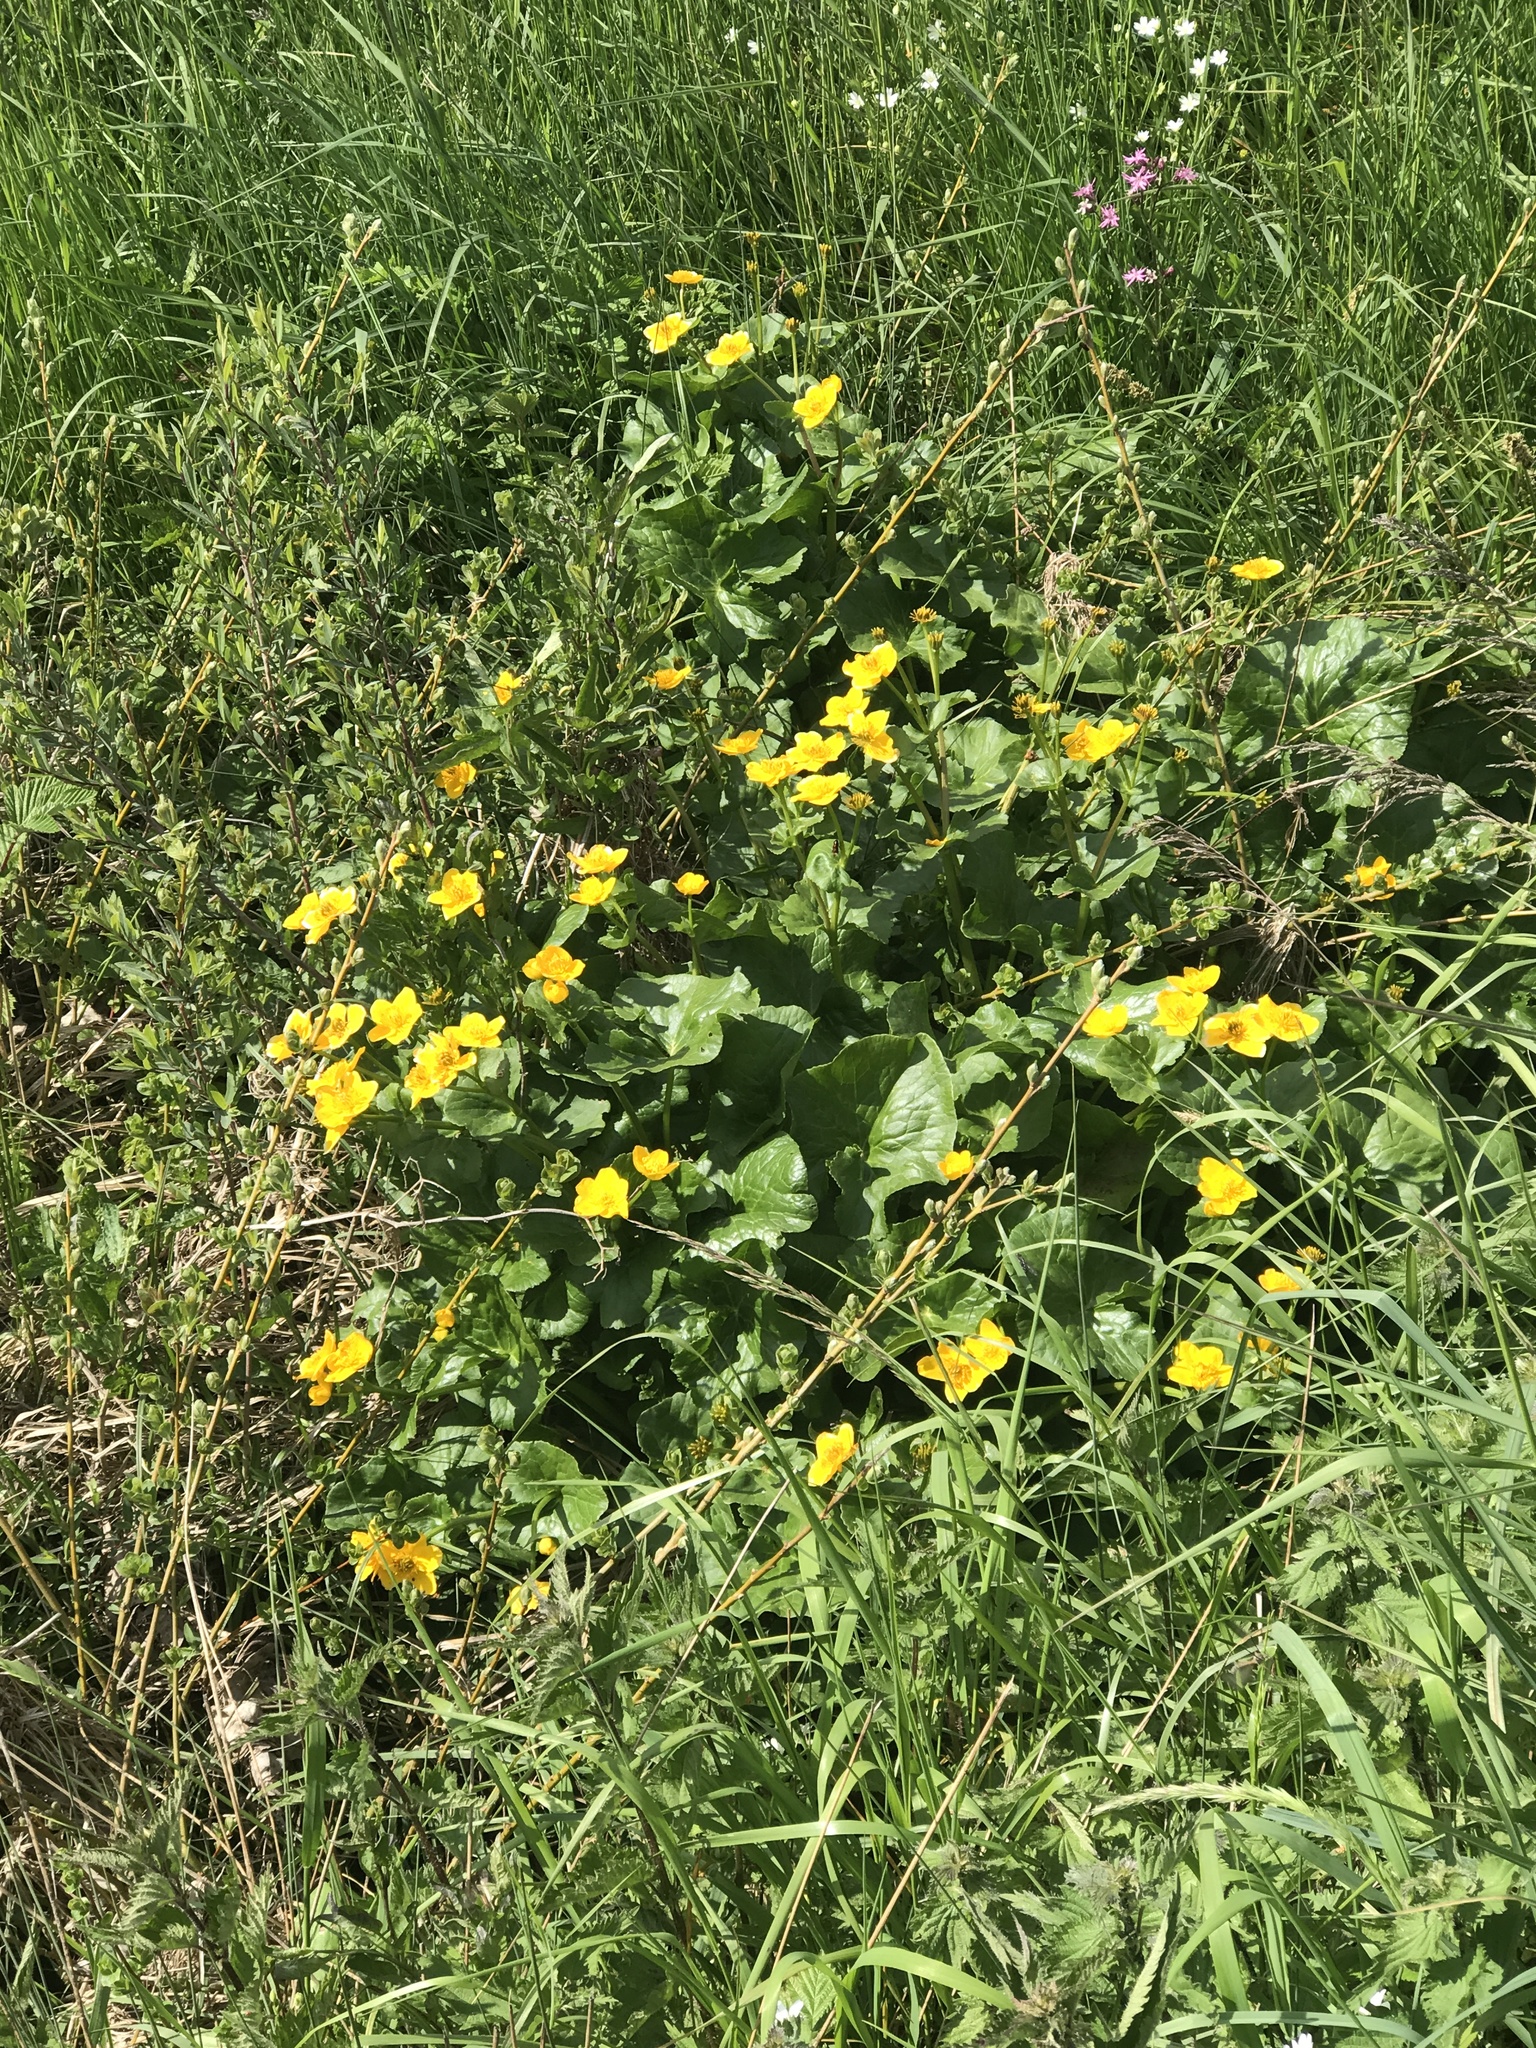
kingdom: Plantae
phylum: Tracheophyta
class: Magnoliopsida
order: Ranunculales
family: Ranunculaceae
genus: Caltha
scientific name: Caltha palustris
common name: Marsh marigold
